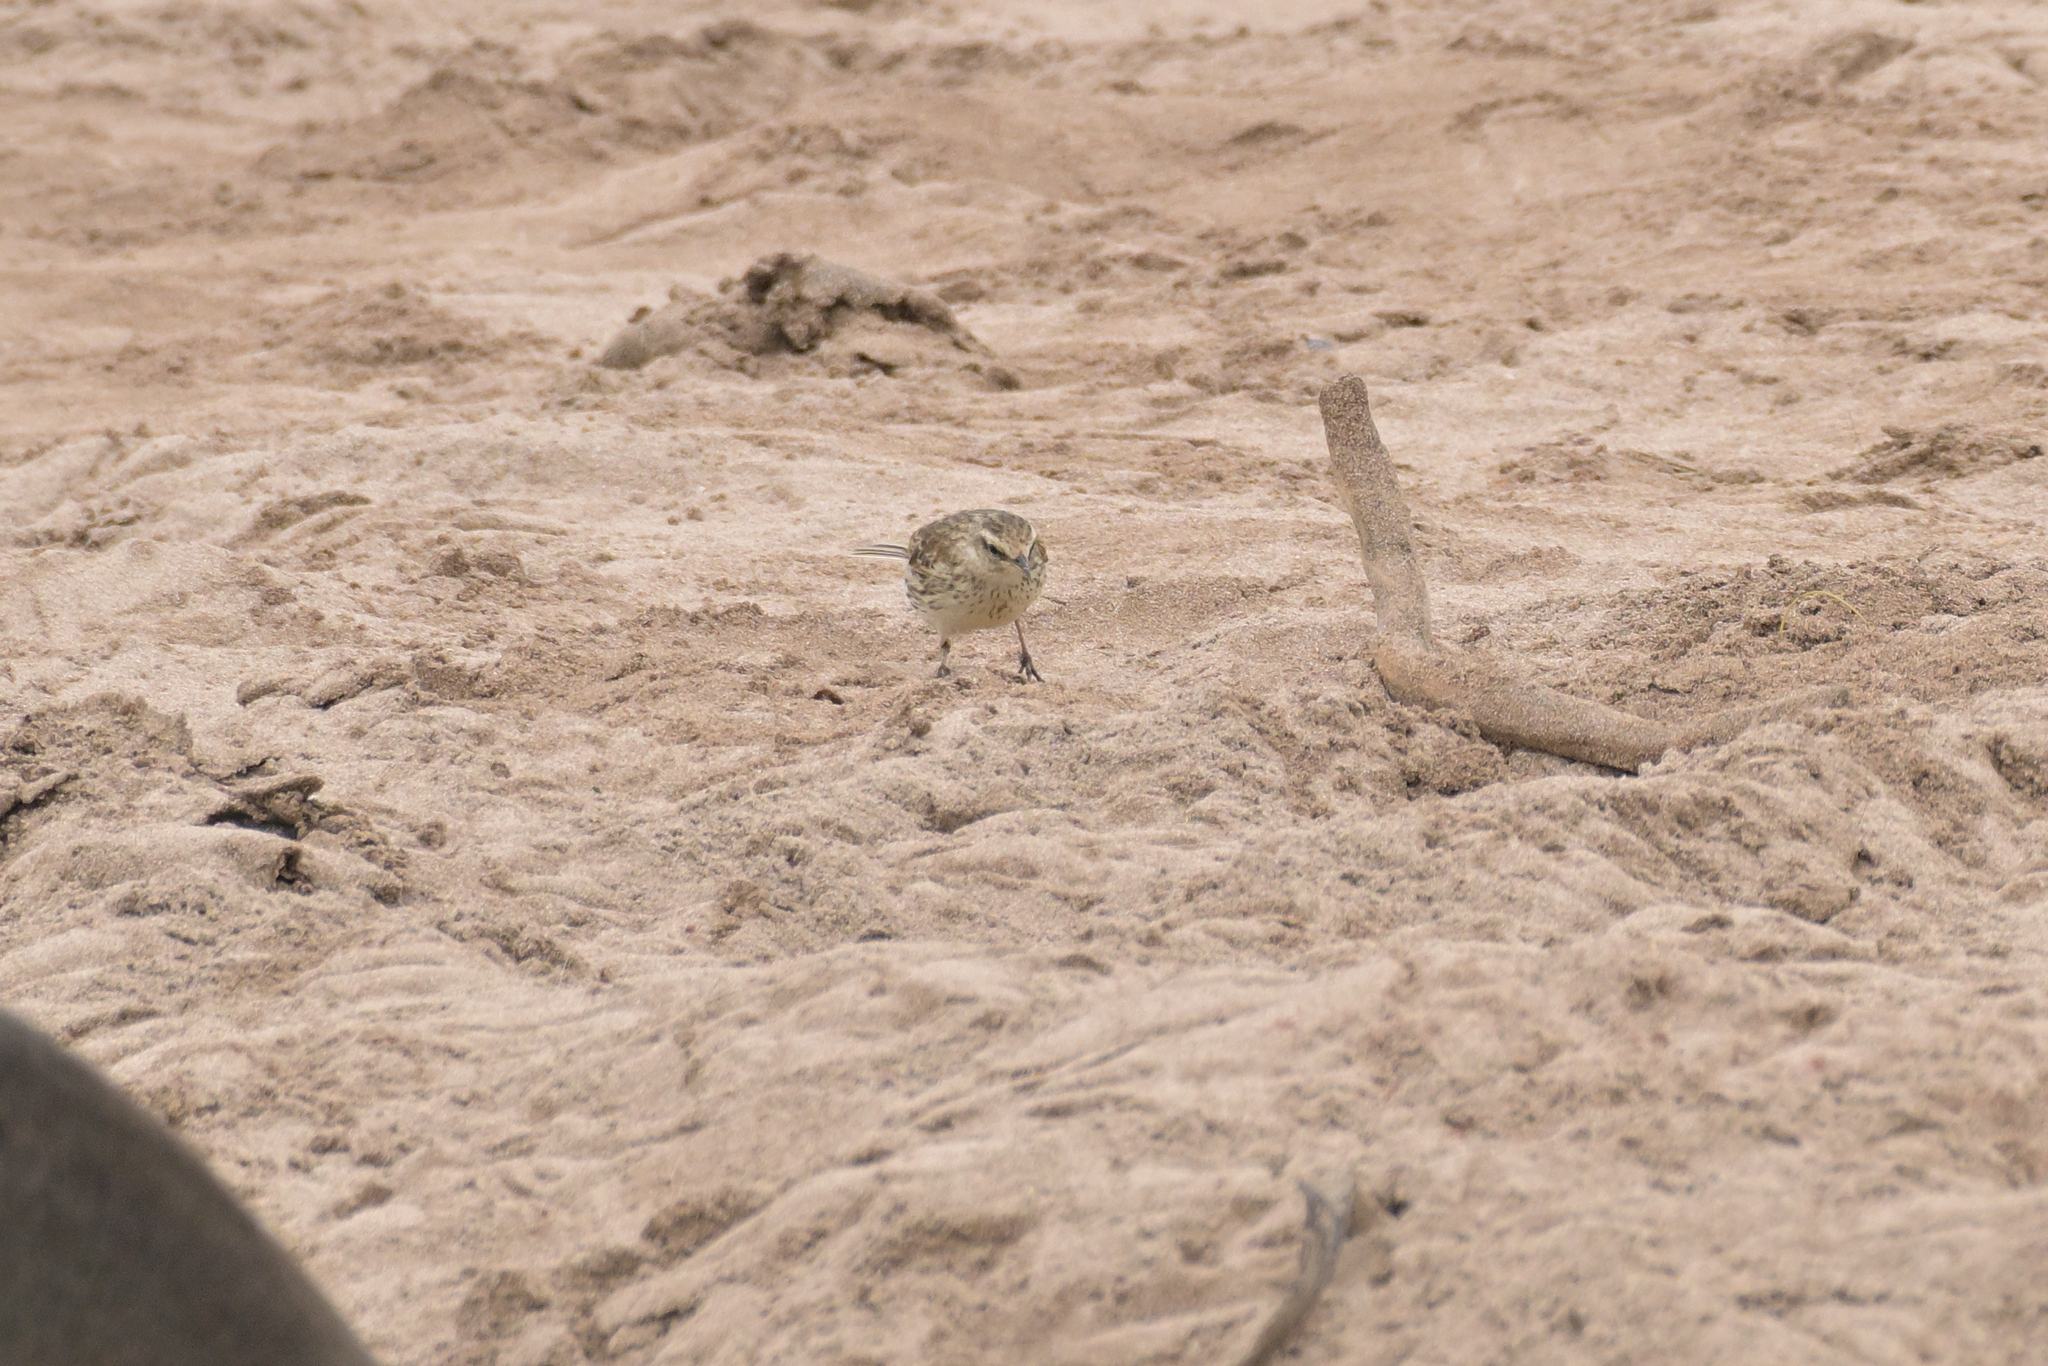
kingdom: Animalia
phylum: Chordata
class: Aves
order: Passeriformes
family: Motacillidae
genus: Anthus
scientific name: Anthus novaeseelandiae
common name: New zealand pipit
